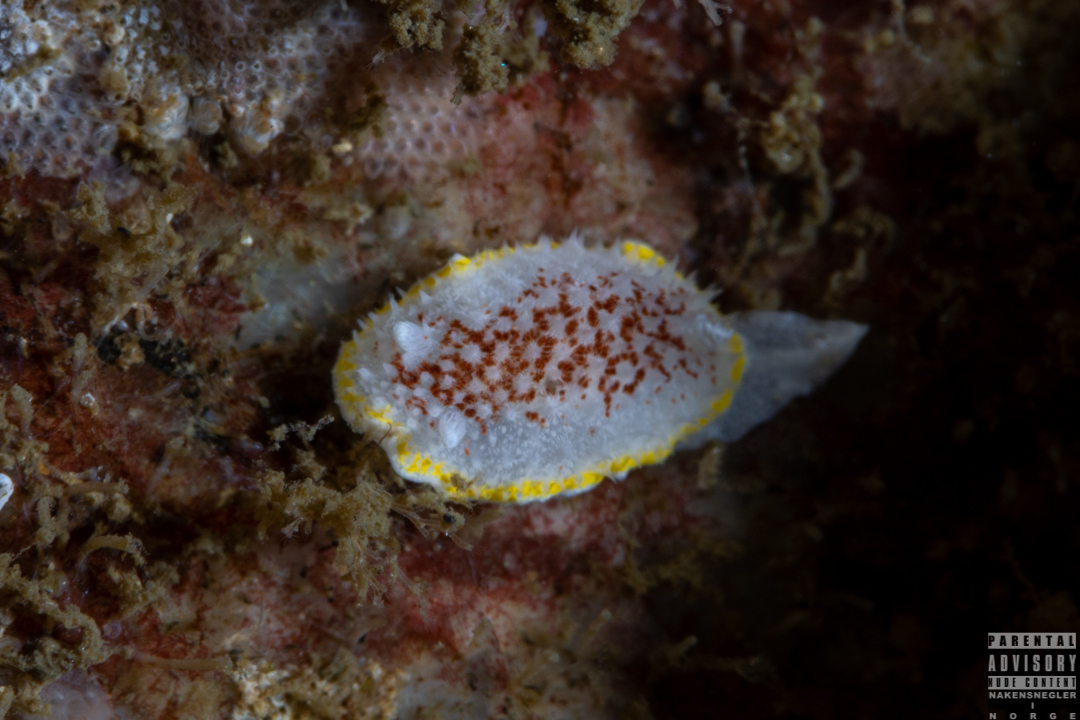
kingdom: Animalia
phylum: Mollusca
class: Gastropoda
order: Nudibranchia
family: Calycidorididae
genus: Diaphorodoris
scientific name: Diaphorodoris luteocincta
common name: Fried egg nudibranch
